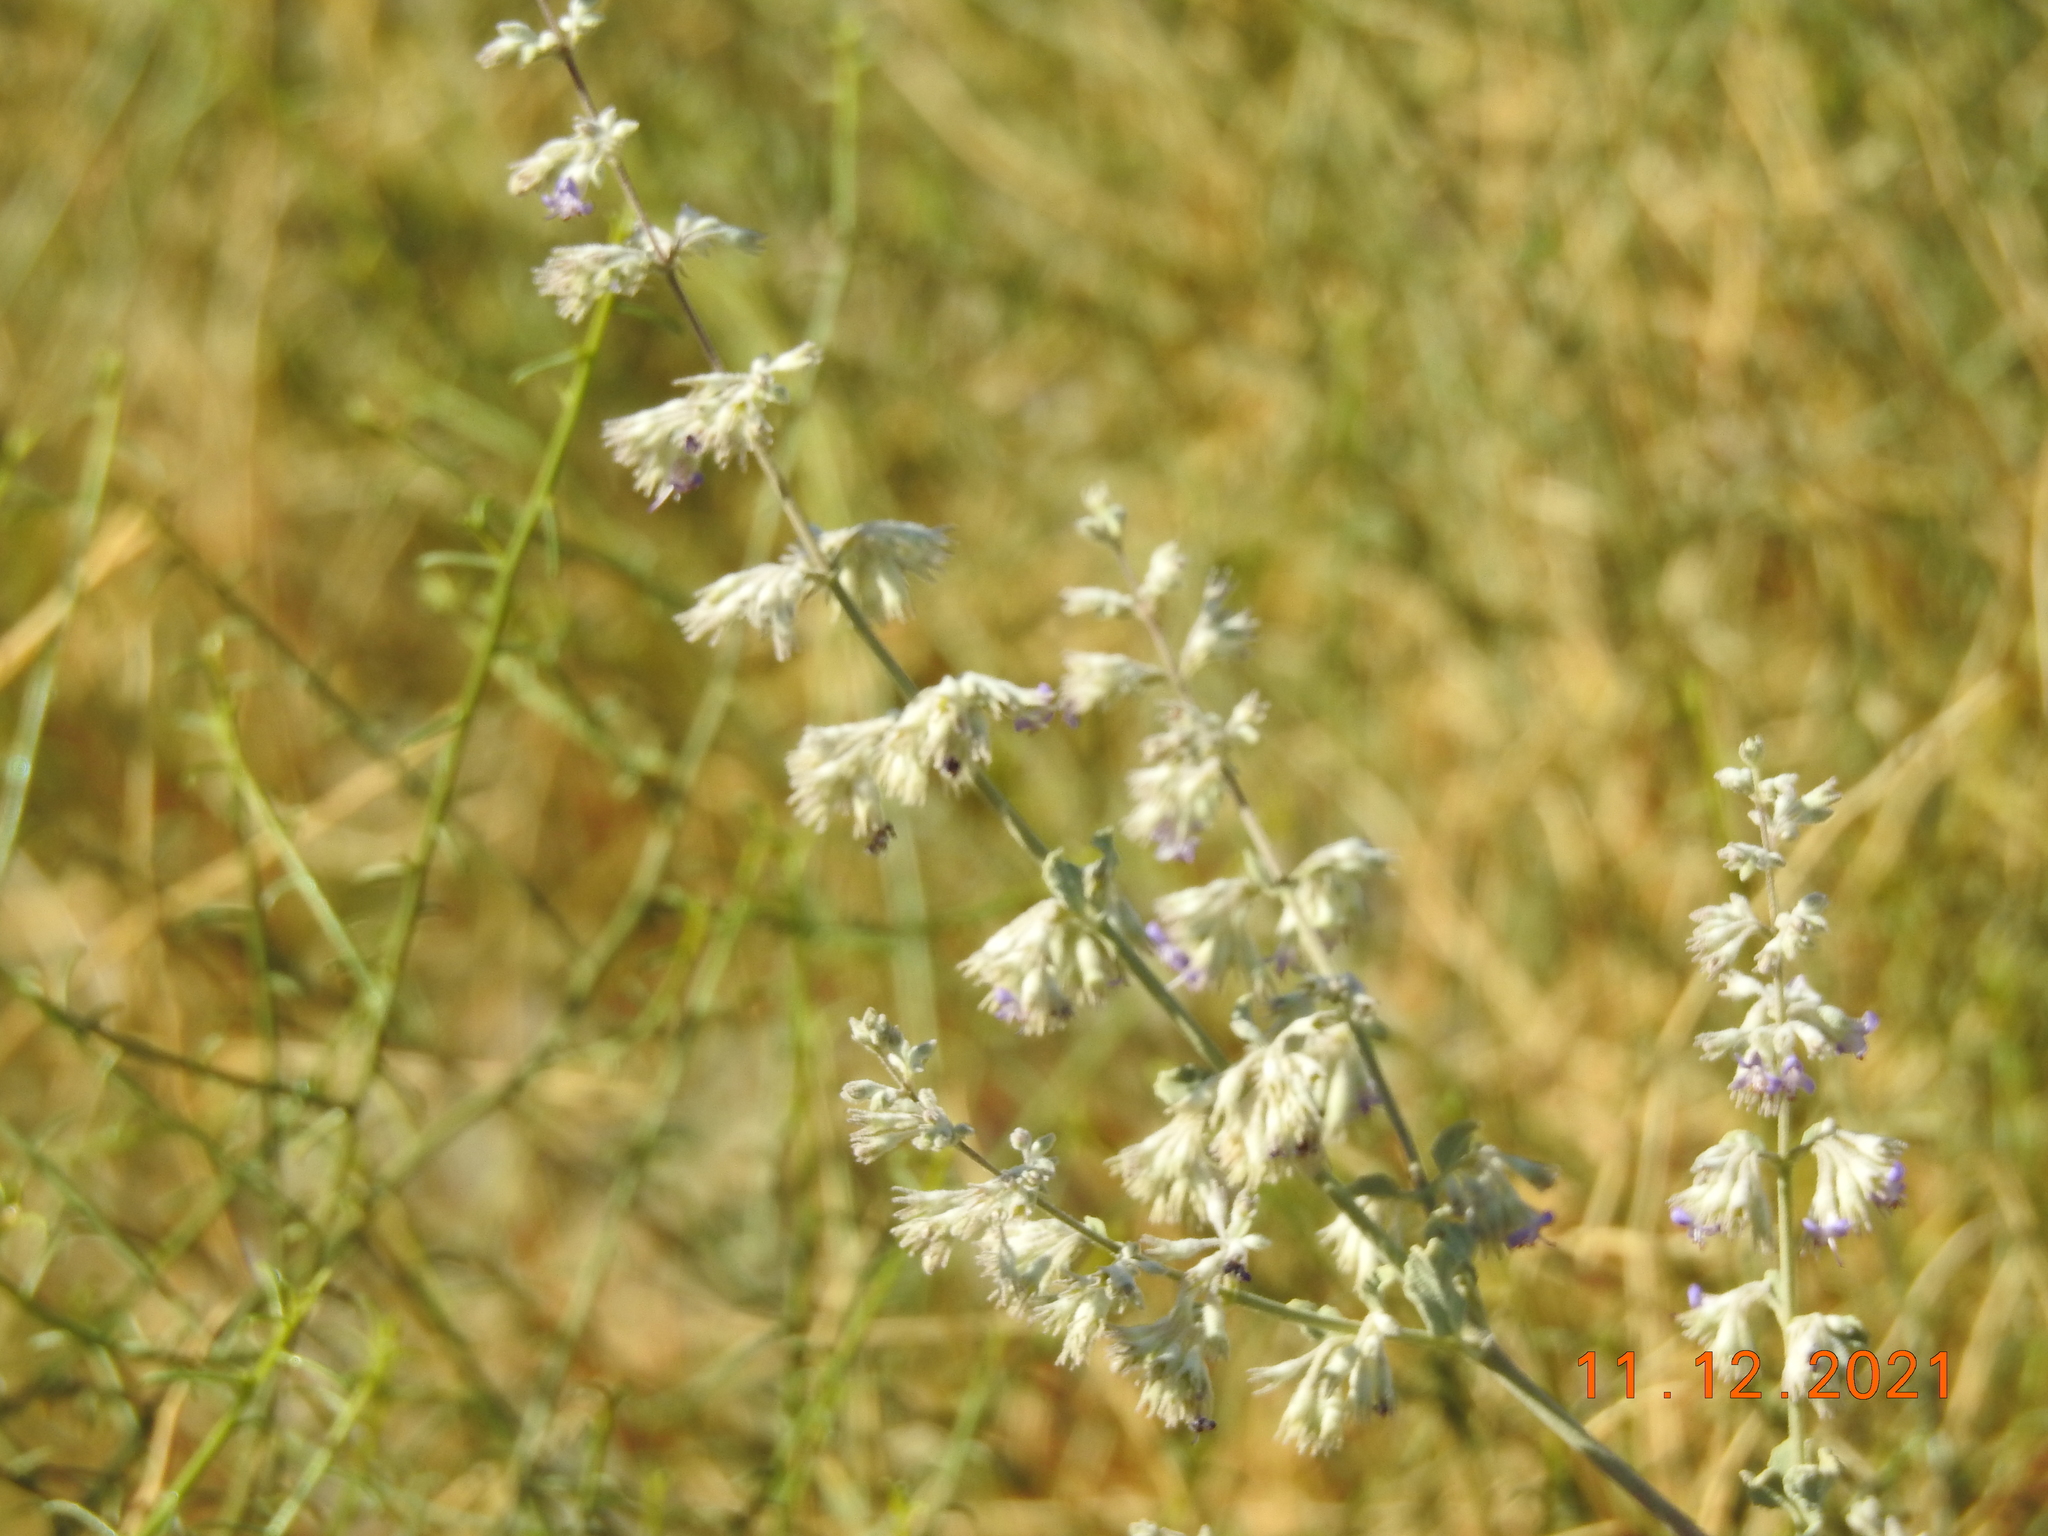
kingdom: Plantae
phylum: Tracheophyta
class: Magnoliopsida
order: Lamiales
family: Lamiaceae
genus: Condea
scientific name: Condea emoryi
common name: Chia
